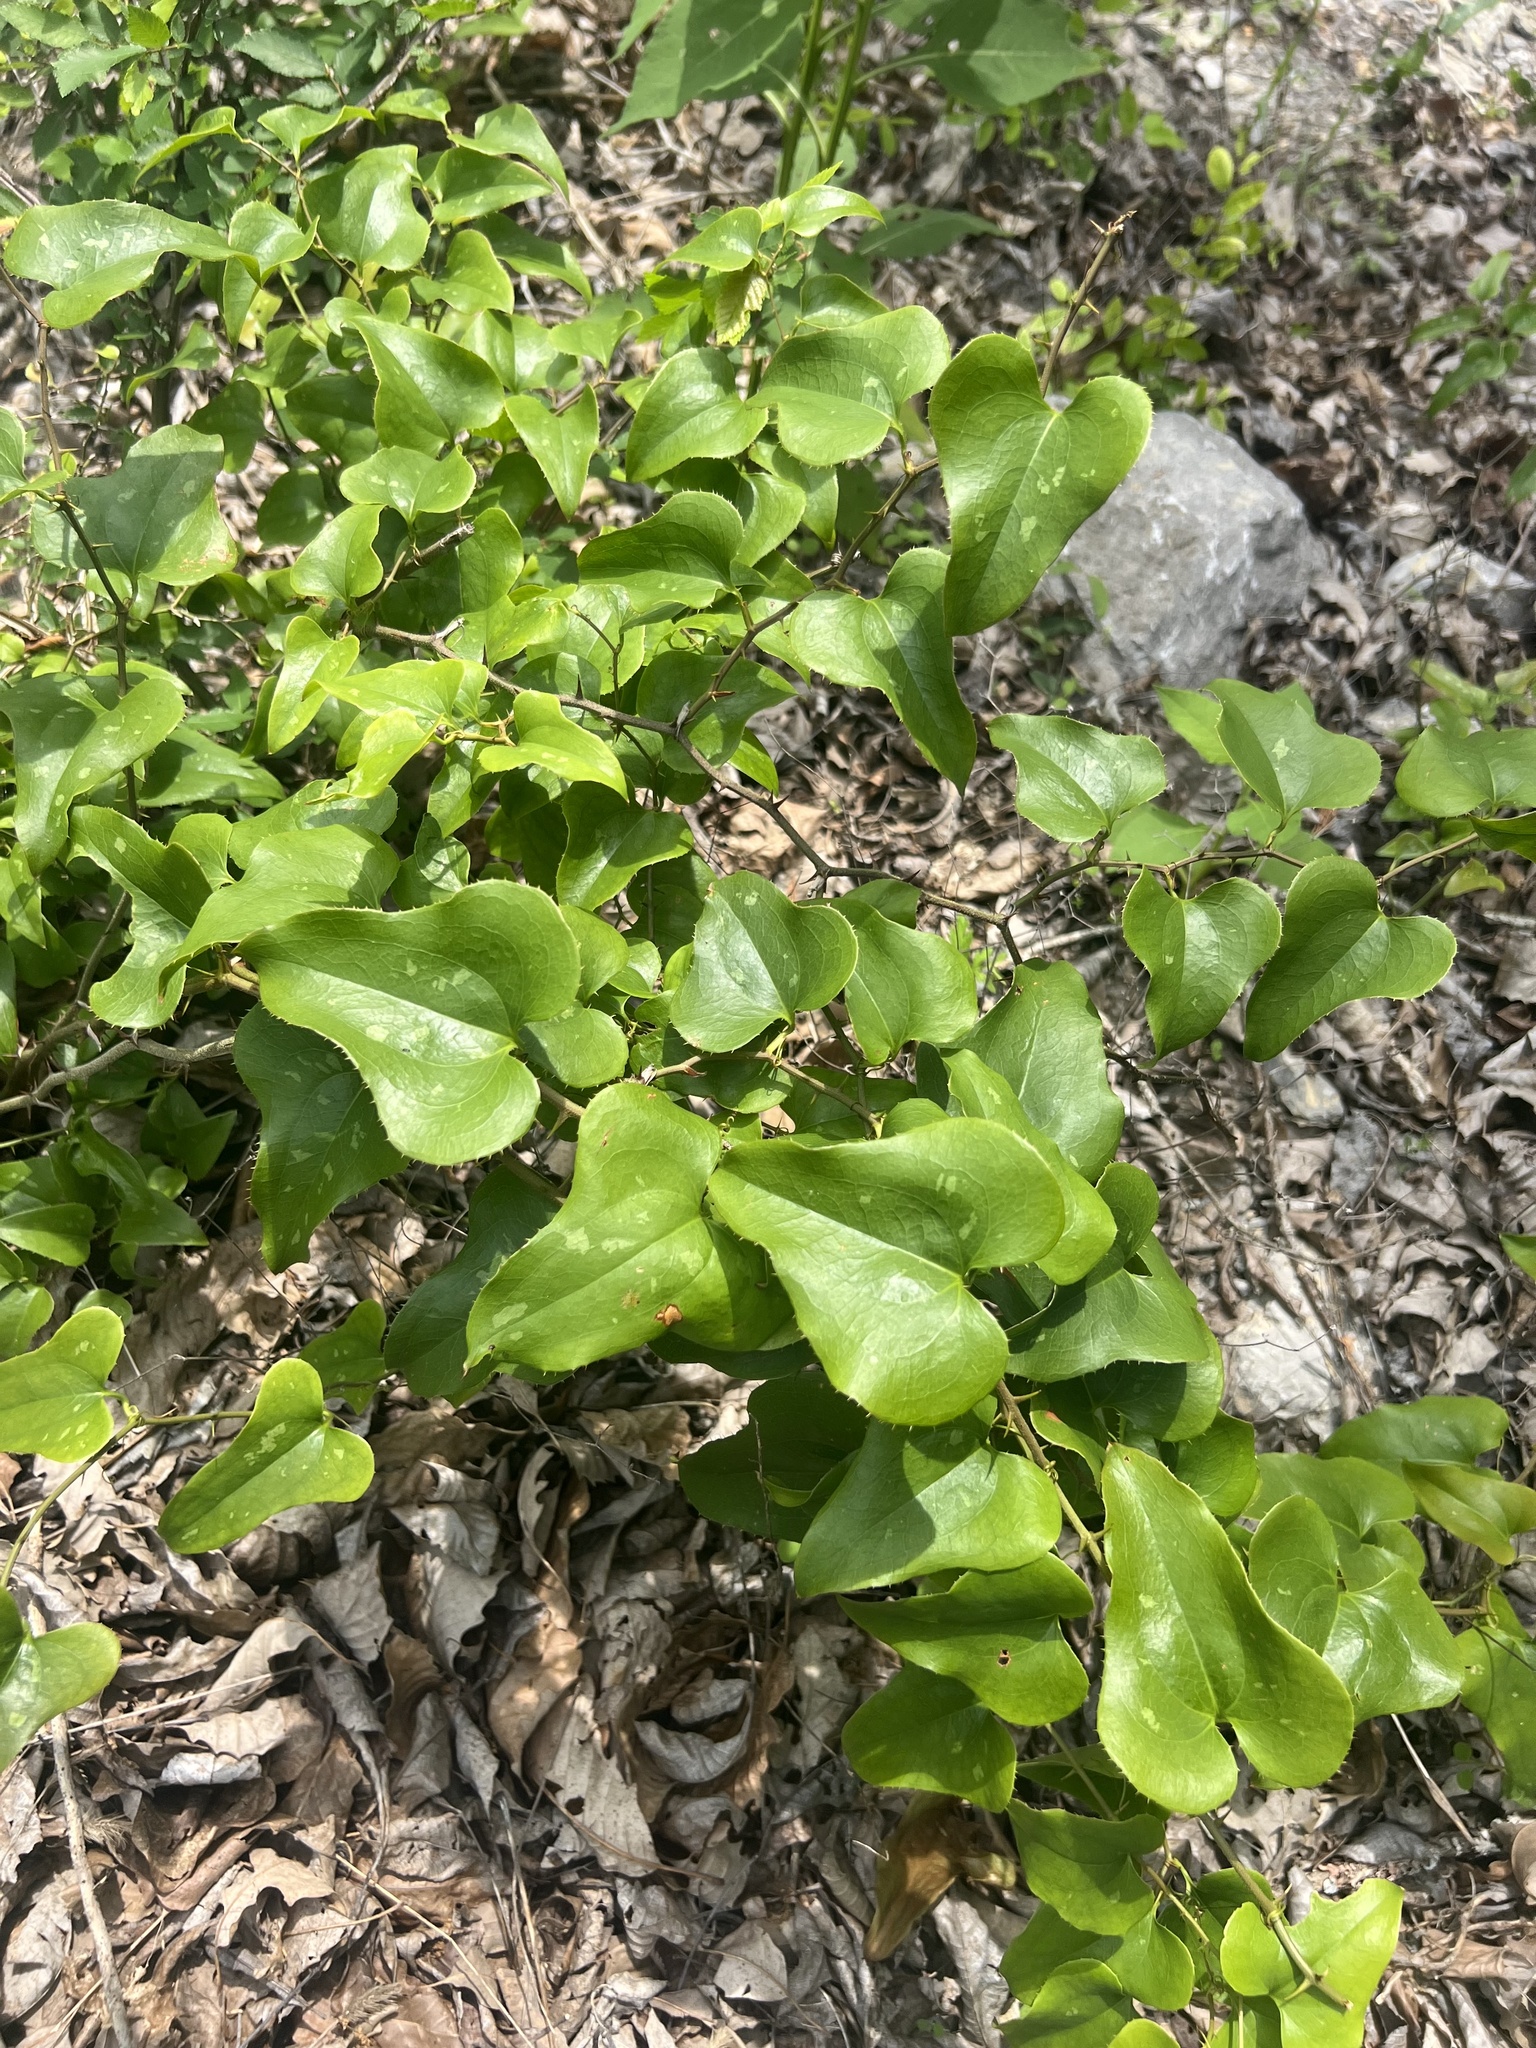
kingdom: Plantae
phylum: Tracheophyta
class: Liliopsida
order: Liliales
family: Smilacaceae
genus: Smilax
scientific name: Smilax bona-nox
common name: Catbrier
